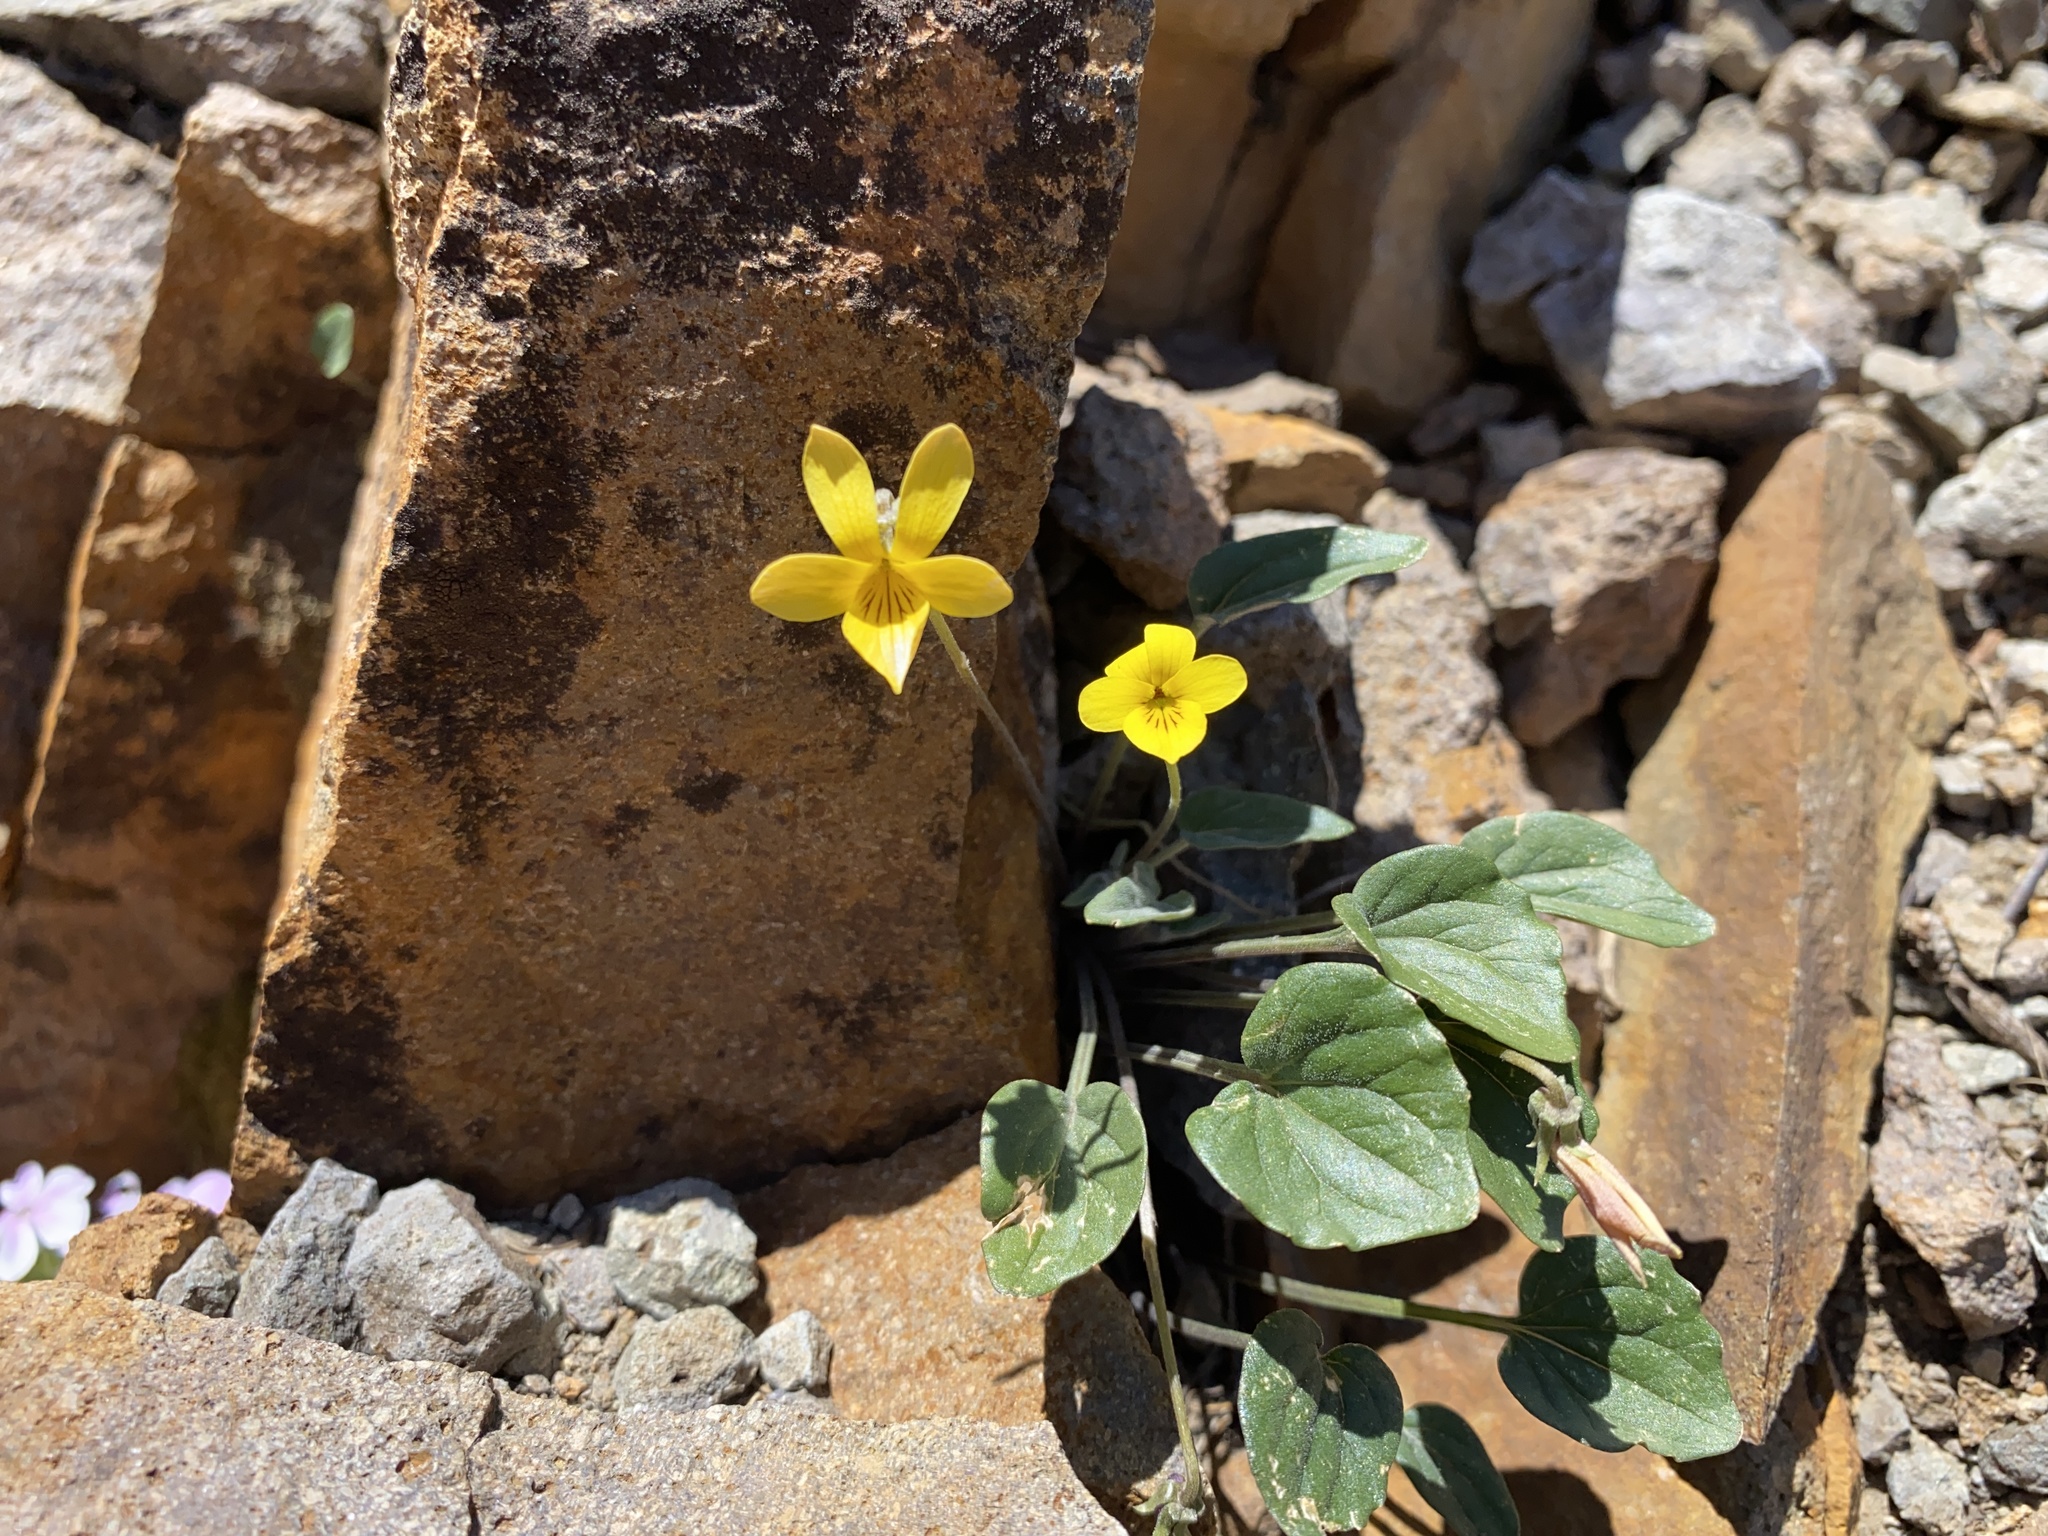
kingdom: Plantae
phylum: Tracheophyta
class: Magnoliopsida
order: Malpighiales
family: Violaceae
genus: Viola
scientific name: Viola purpurea
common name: Pine violet
